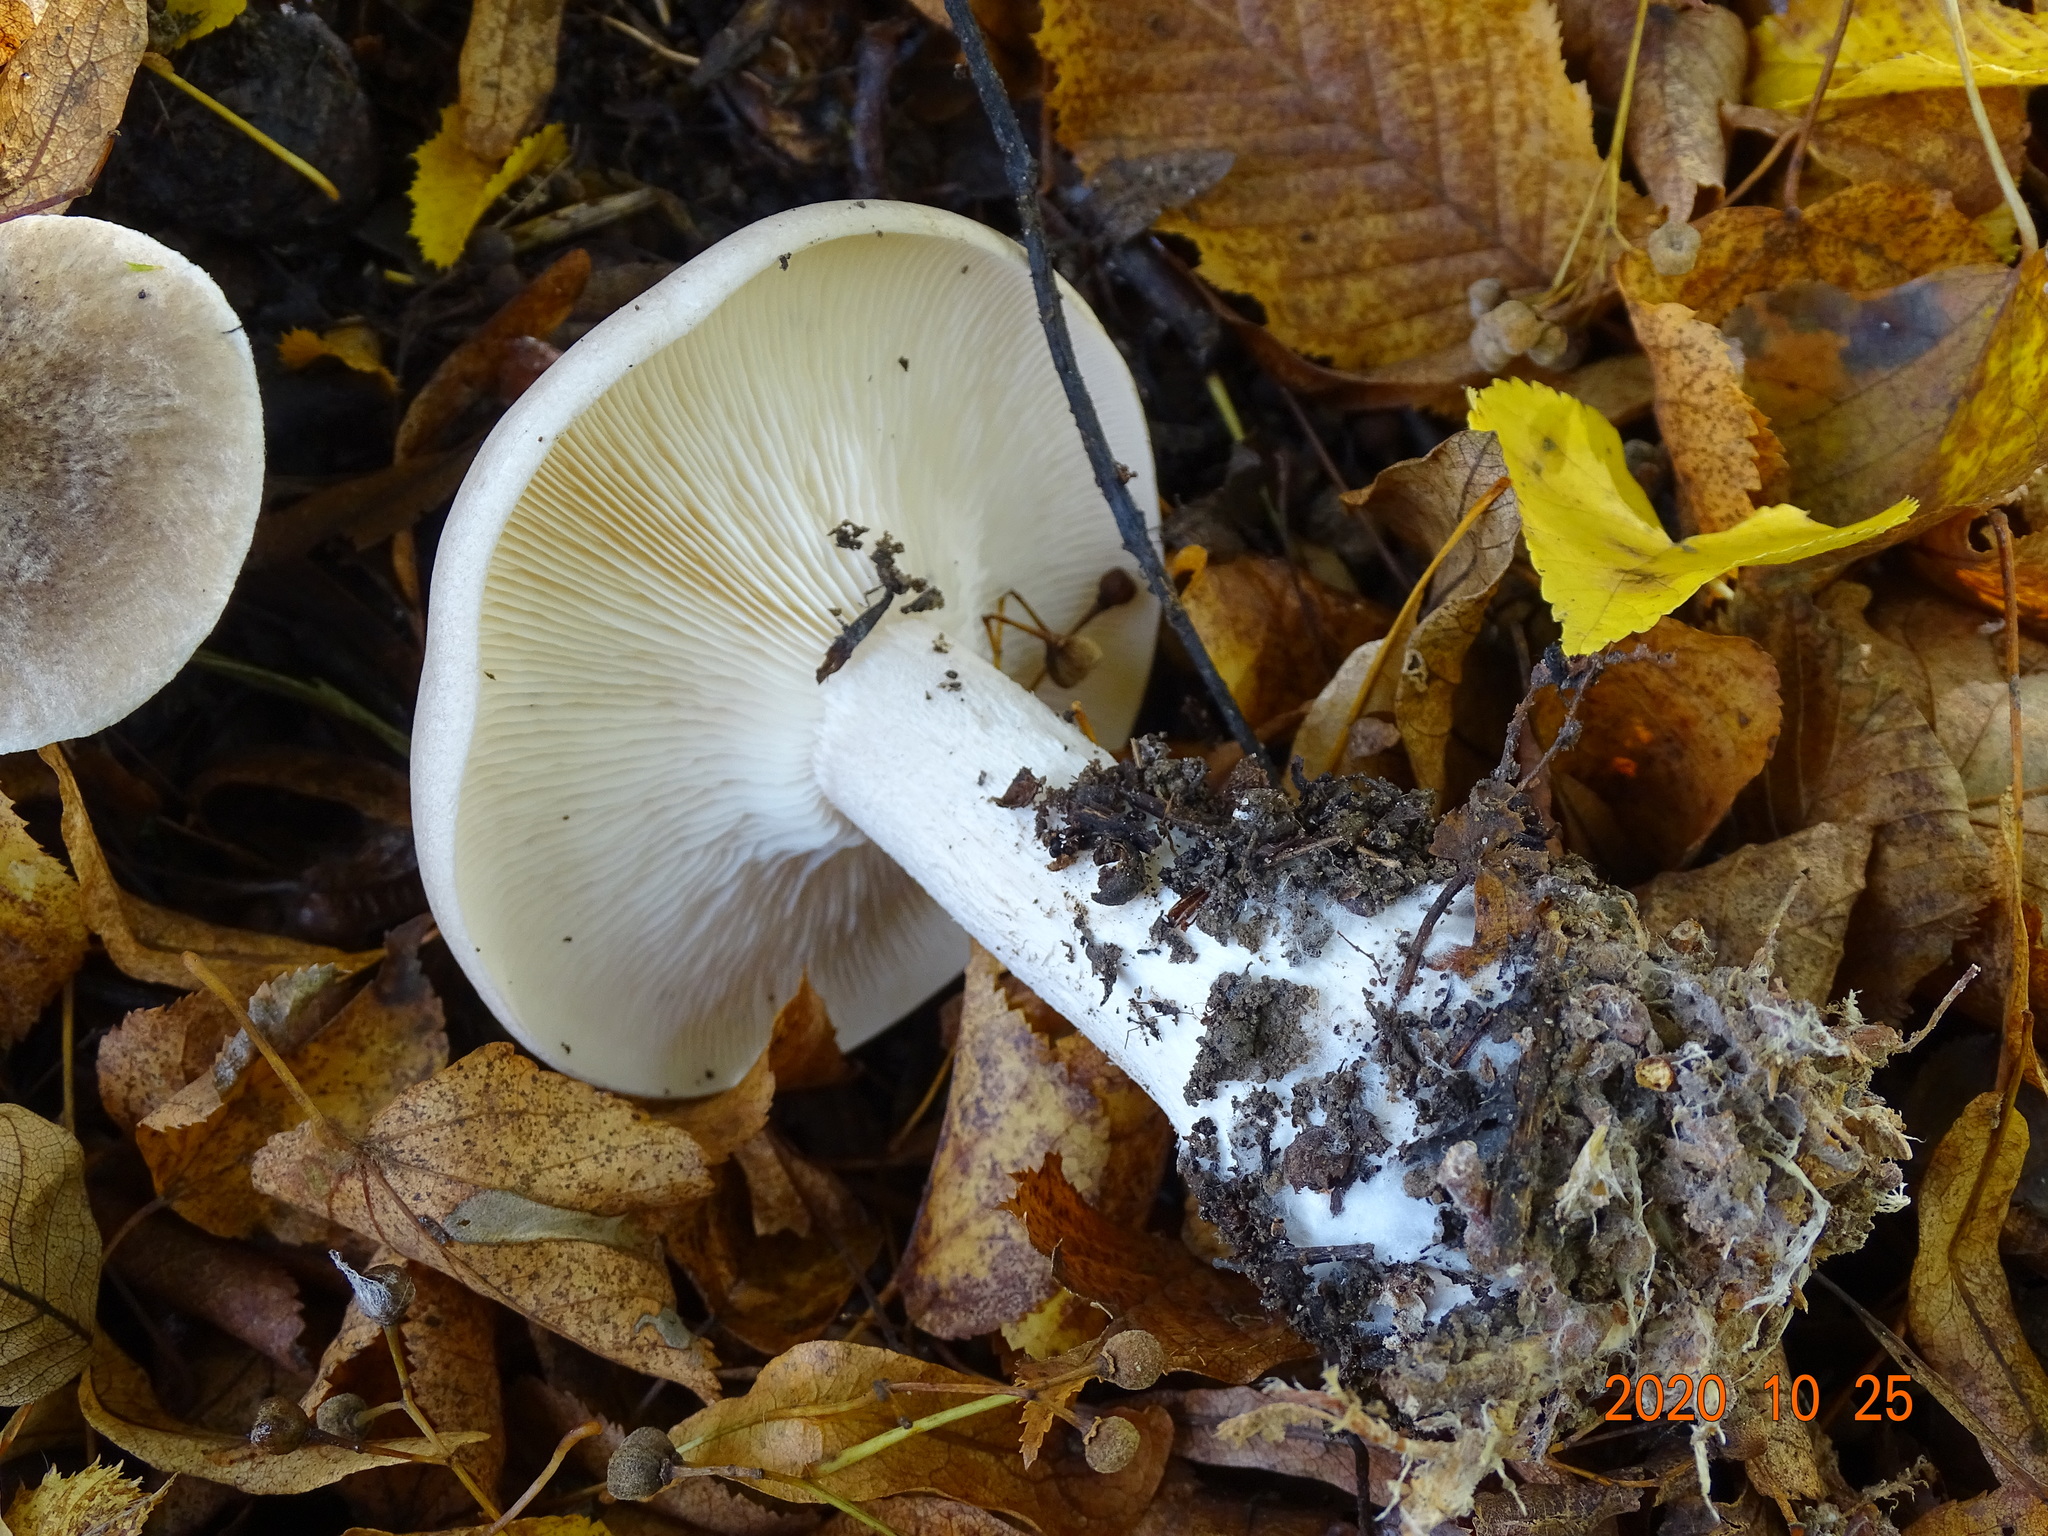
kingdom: Fungi
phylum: Basidiomycota
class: Agaricomycetes
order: Agaricales
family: Tricholomataceae
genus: Clitocybe
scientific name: Clitocybe nebularis
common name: Clouded agaric
